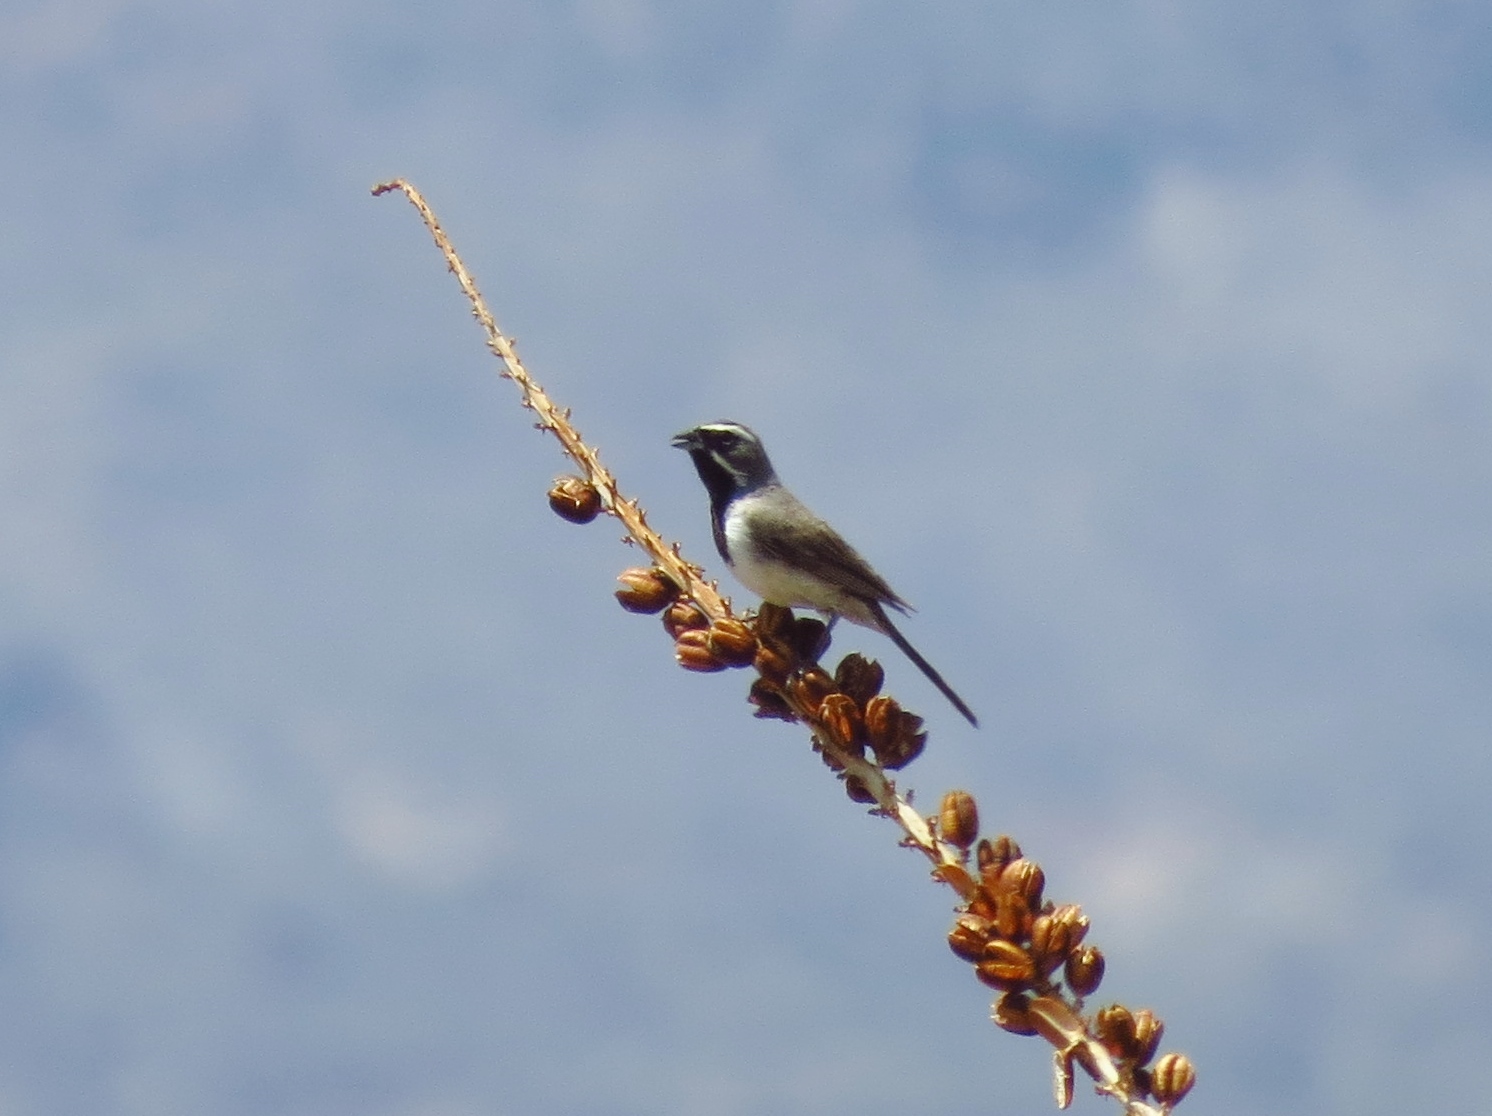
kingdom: Animalia
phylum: Chordata
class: Aves
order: Passeriformes
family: Passerellidae
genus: Amphispiza
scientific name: Amphispiza bilineata
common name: Black-throated sparrow
